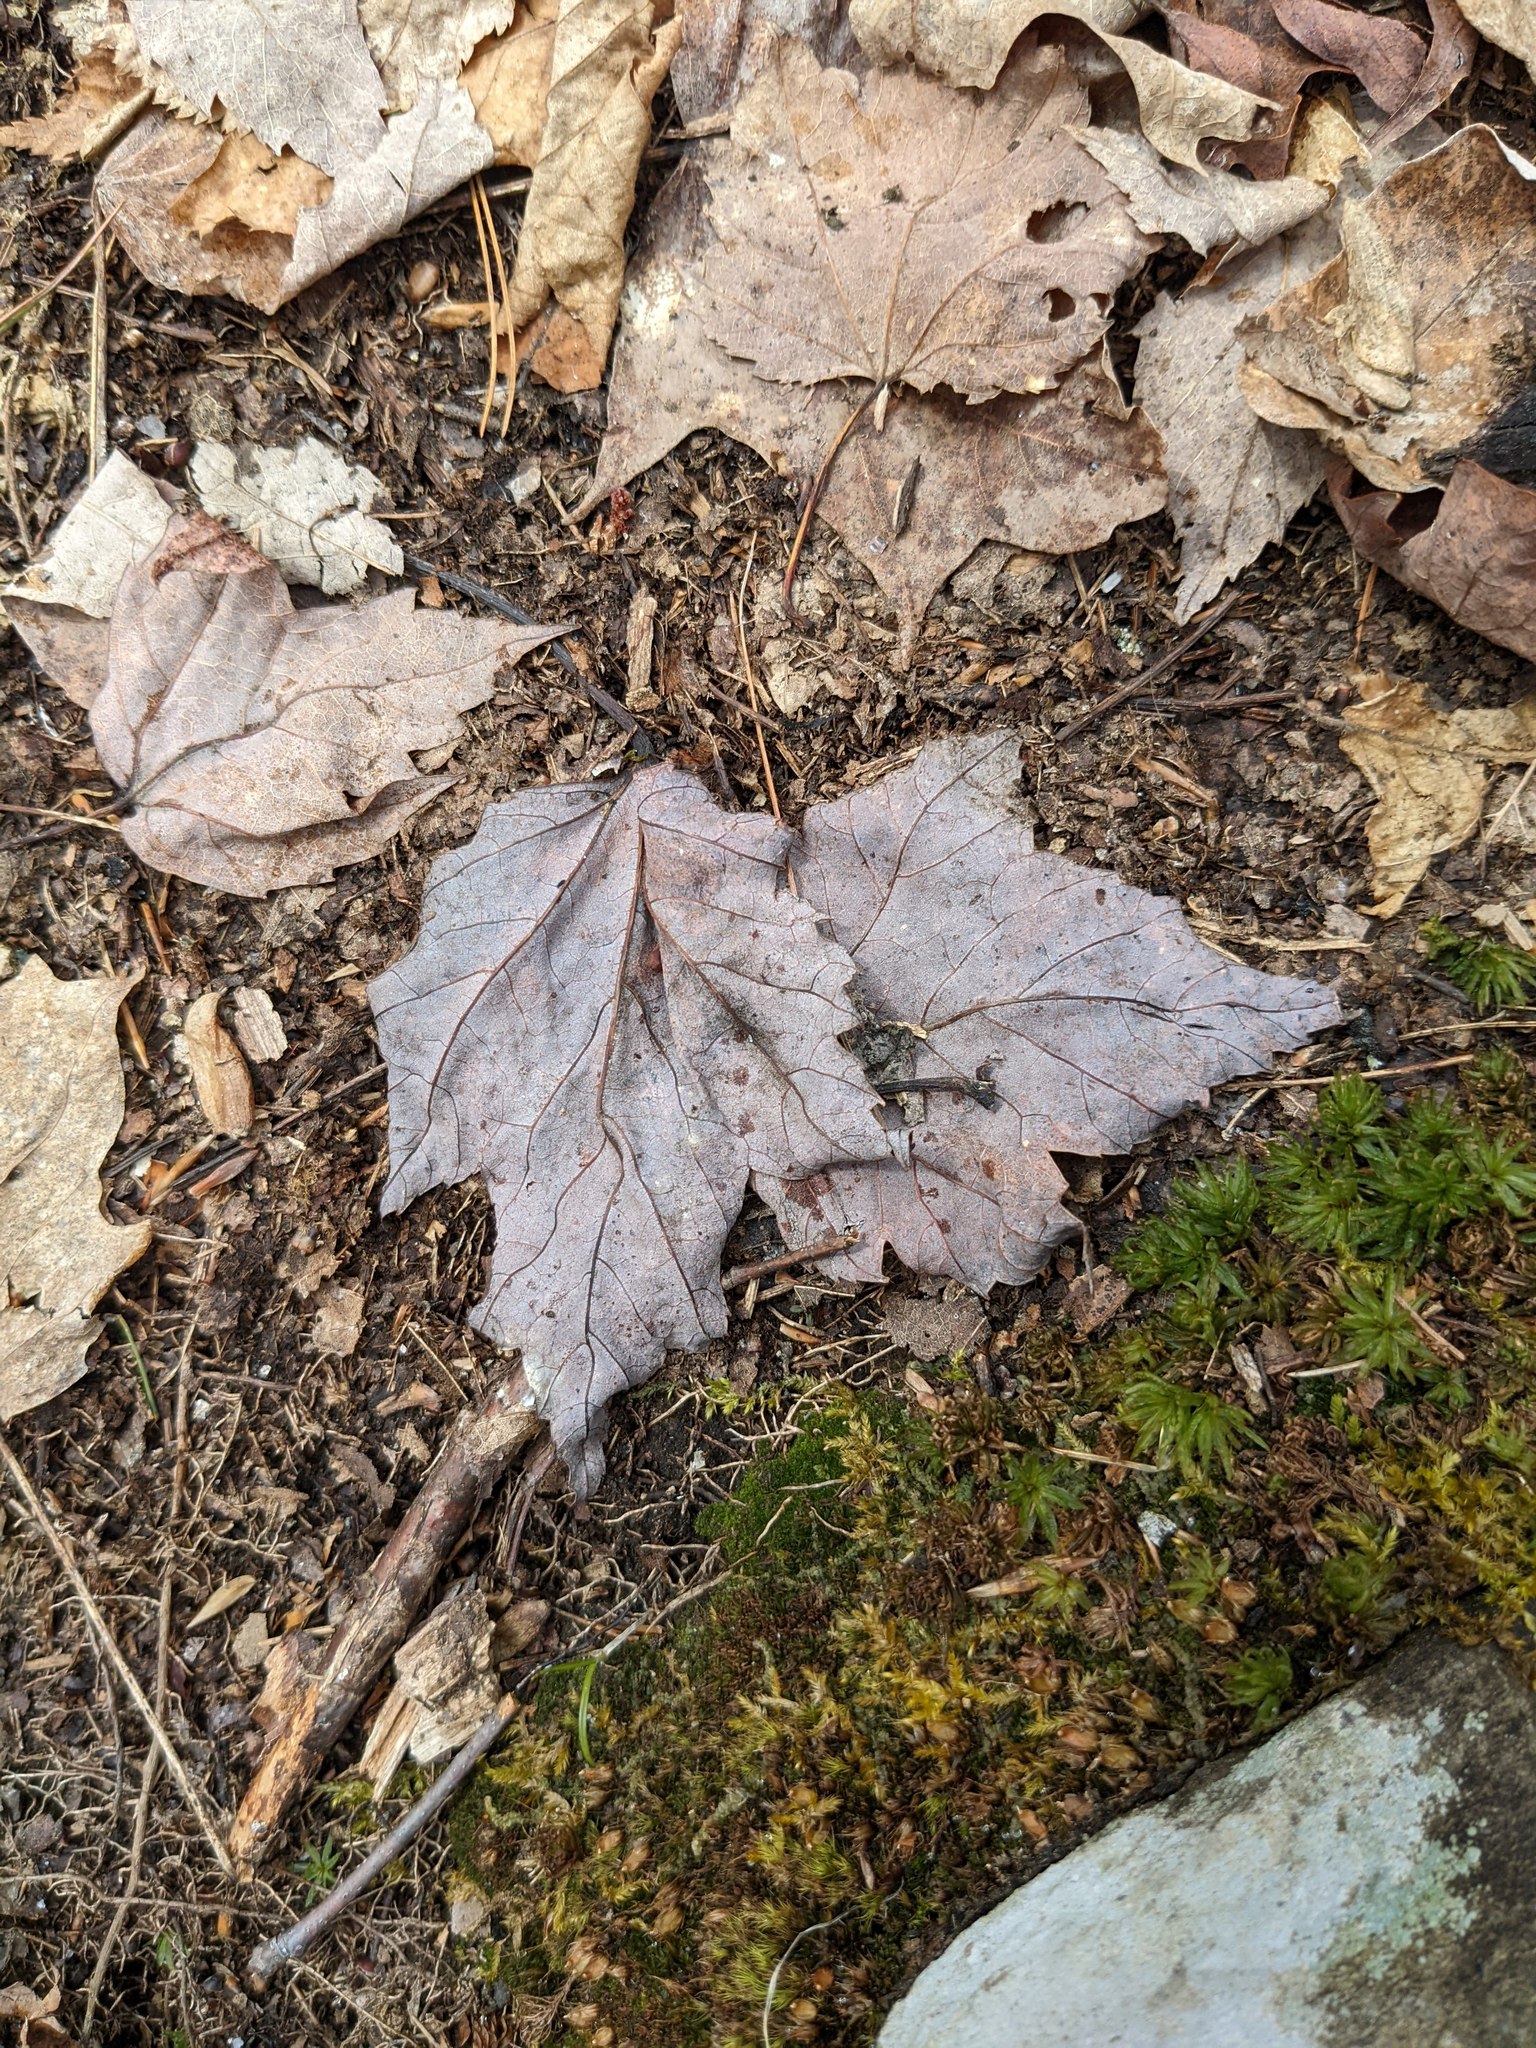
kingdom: Plantae
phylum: Tracheophyta
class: Magnoliopsida
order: Sapindales
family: Sapindaceae
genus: Acer
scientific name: Acer rubrum
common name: Red maple
